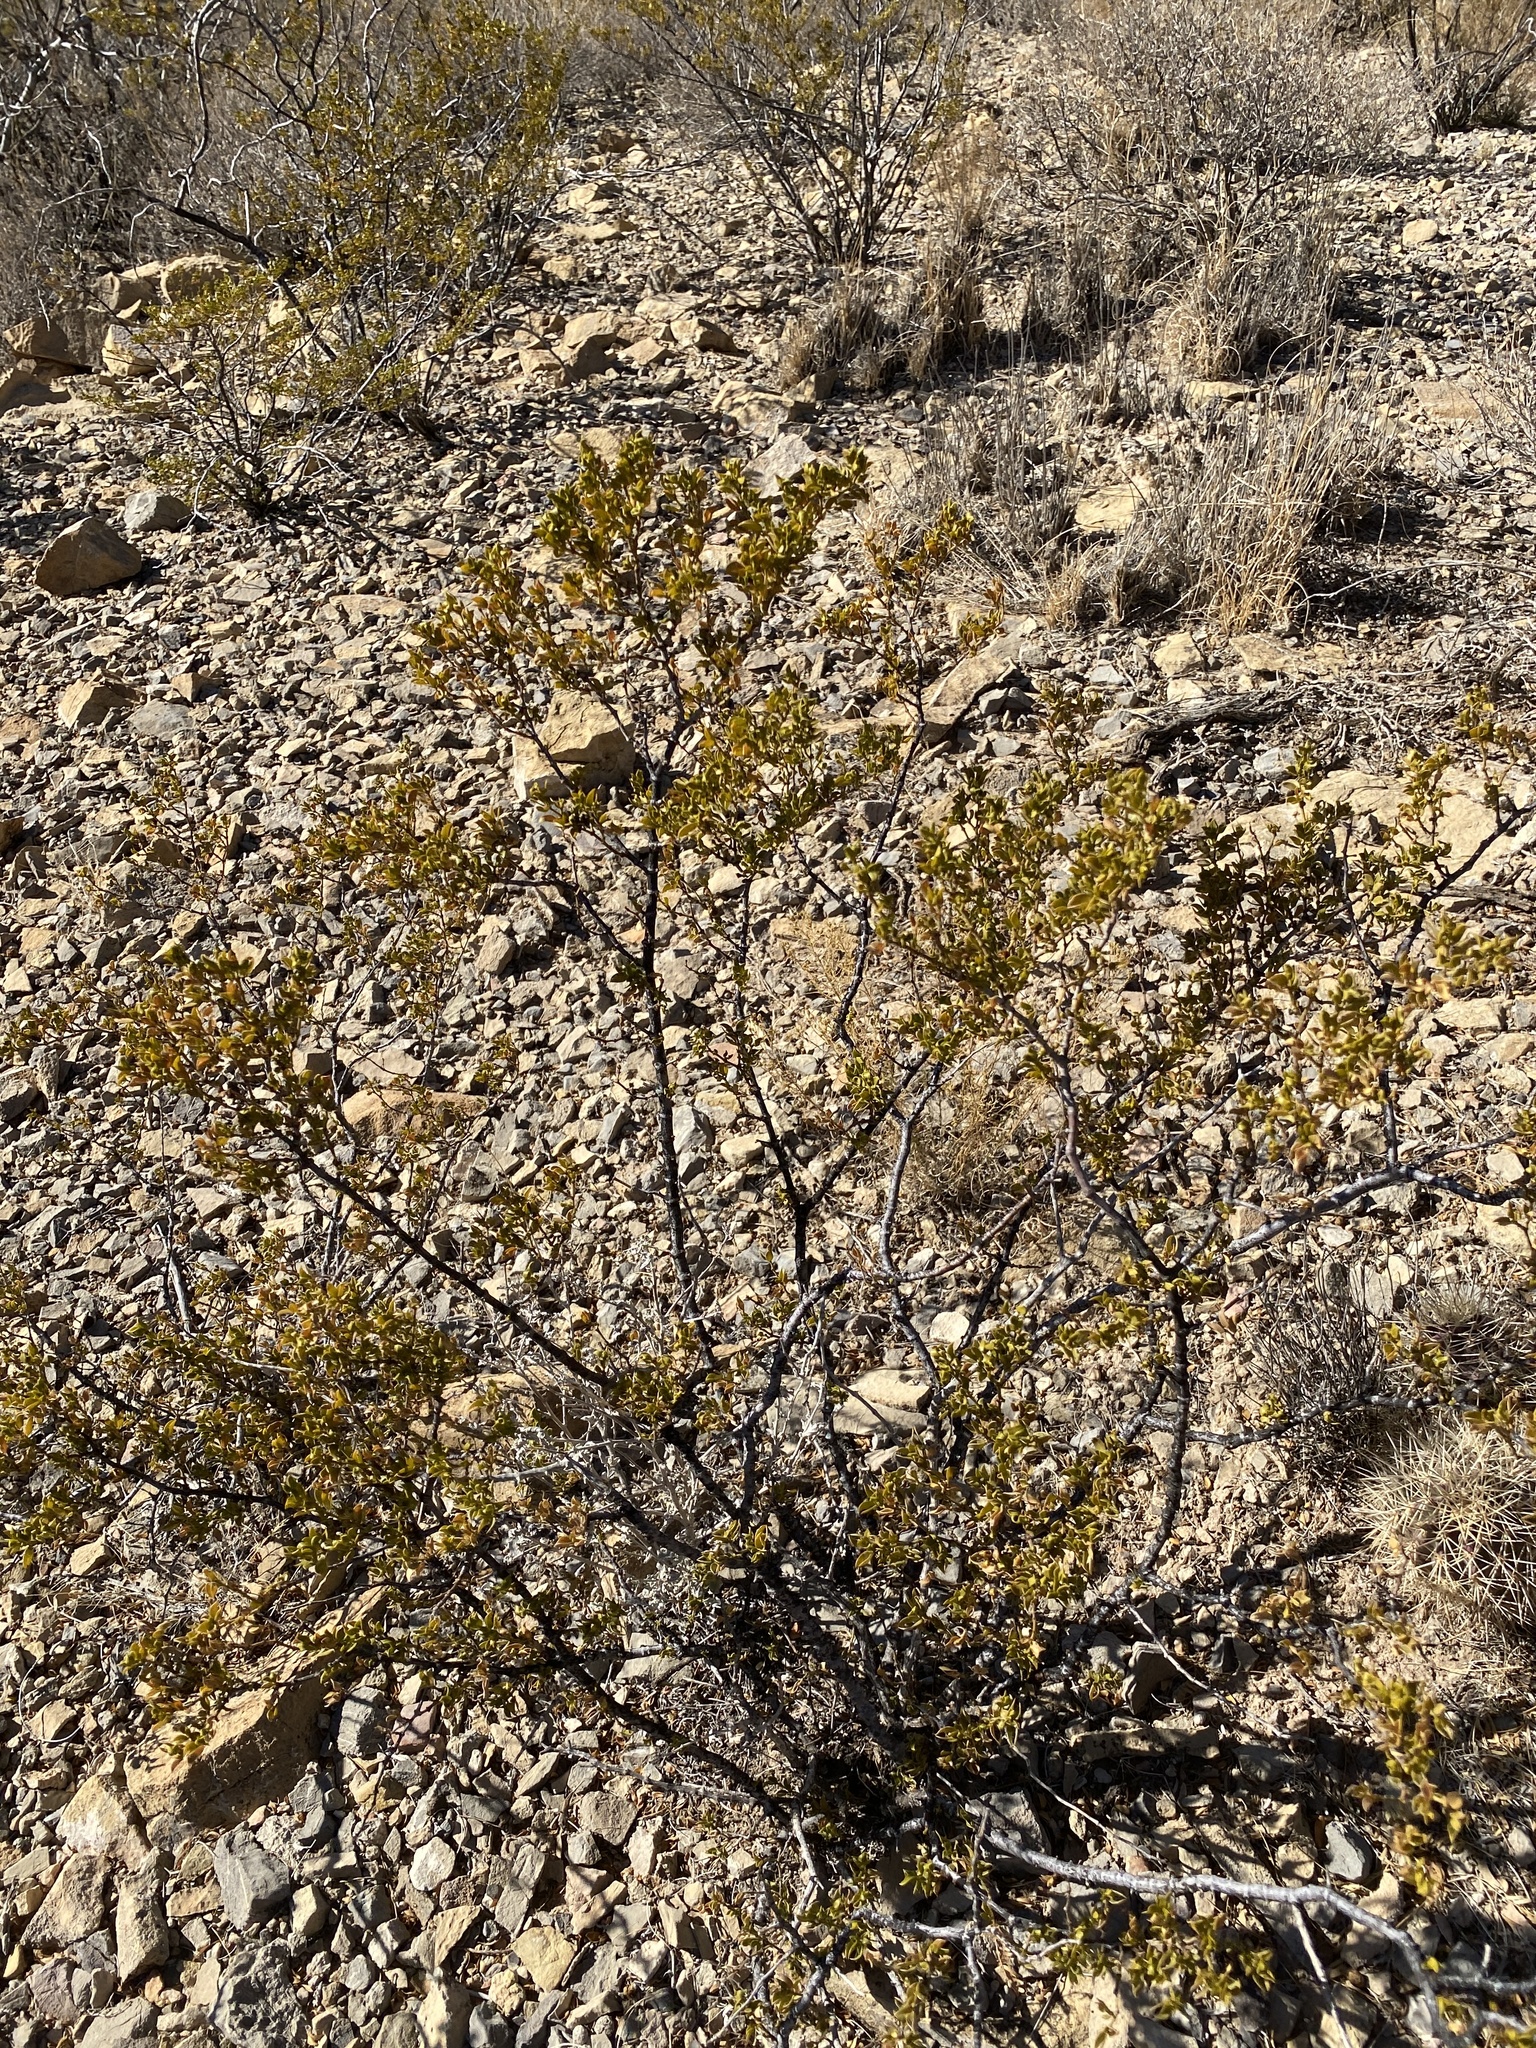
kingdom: Plantae
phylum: Tracheophyta
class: Magnoliopsida
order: Zygophyllales
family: Zygophyllaceae
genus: Larrea
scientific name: Larrea tridentata
